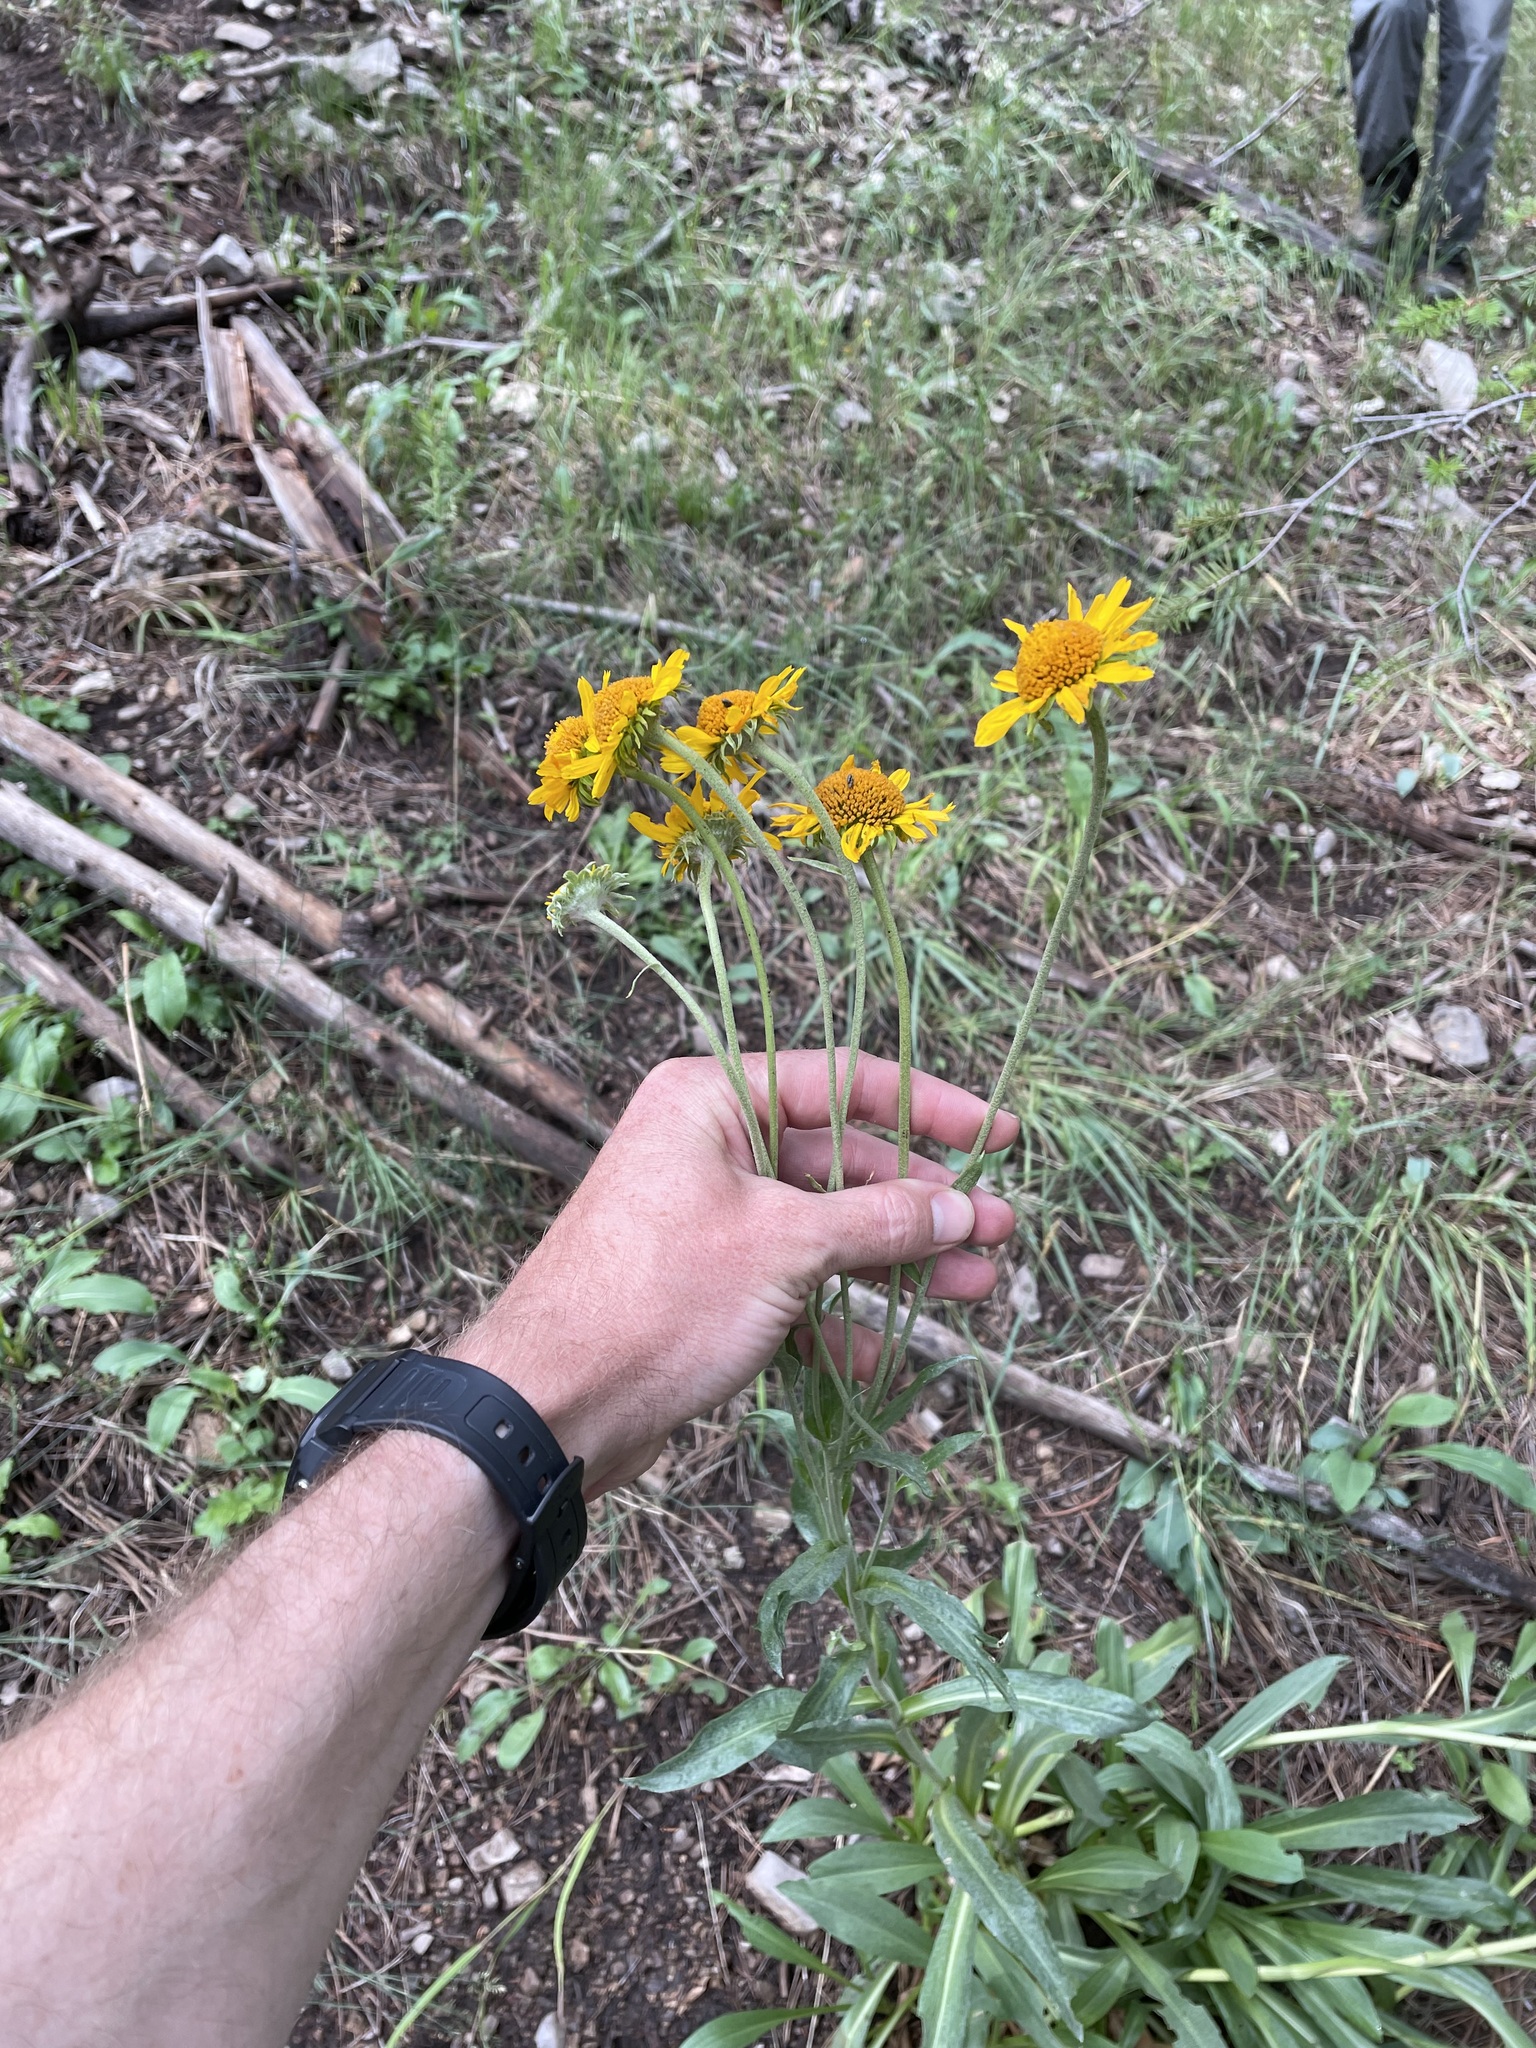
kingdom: Plantae
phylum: Tracheophyta
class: Magnoliopsida
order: Asterales
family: Asteraceae
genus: Hymenoxys
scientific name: Hymenoxys hoopesii
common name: Orange-sneezeweed
